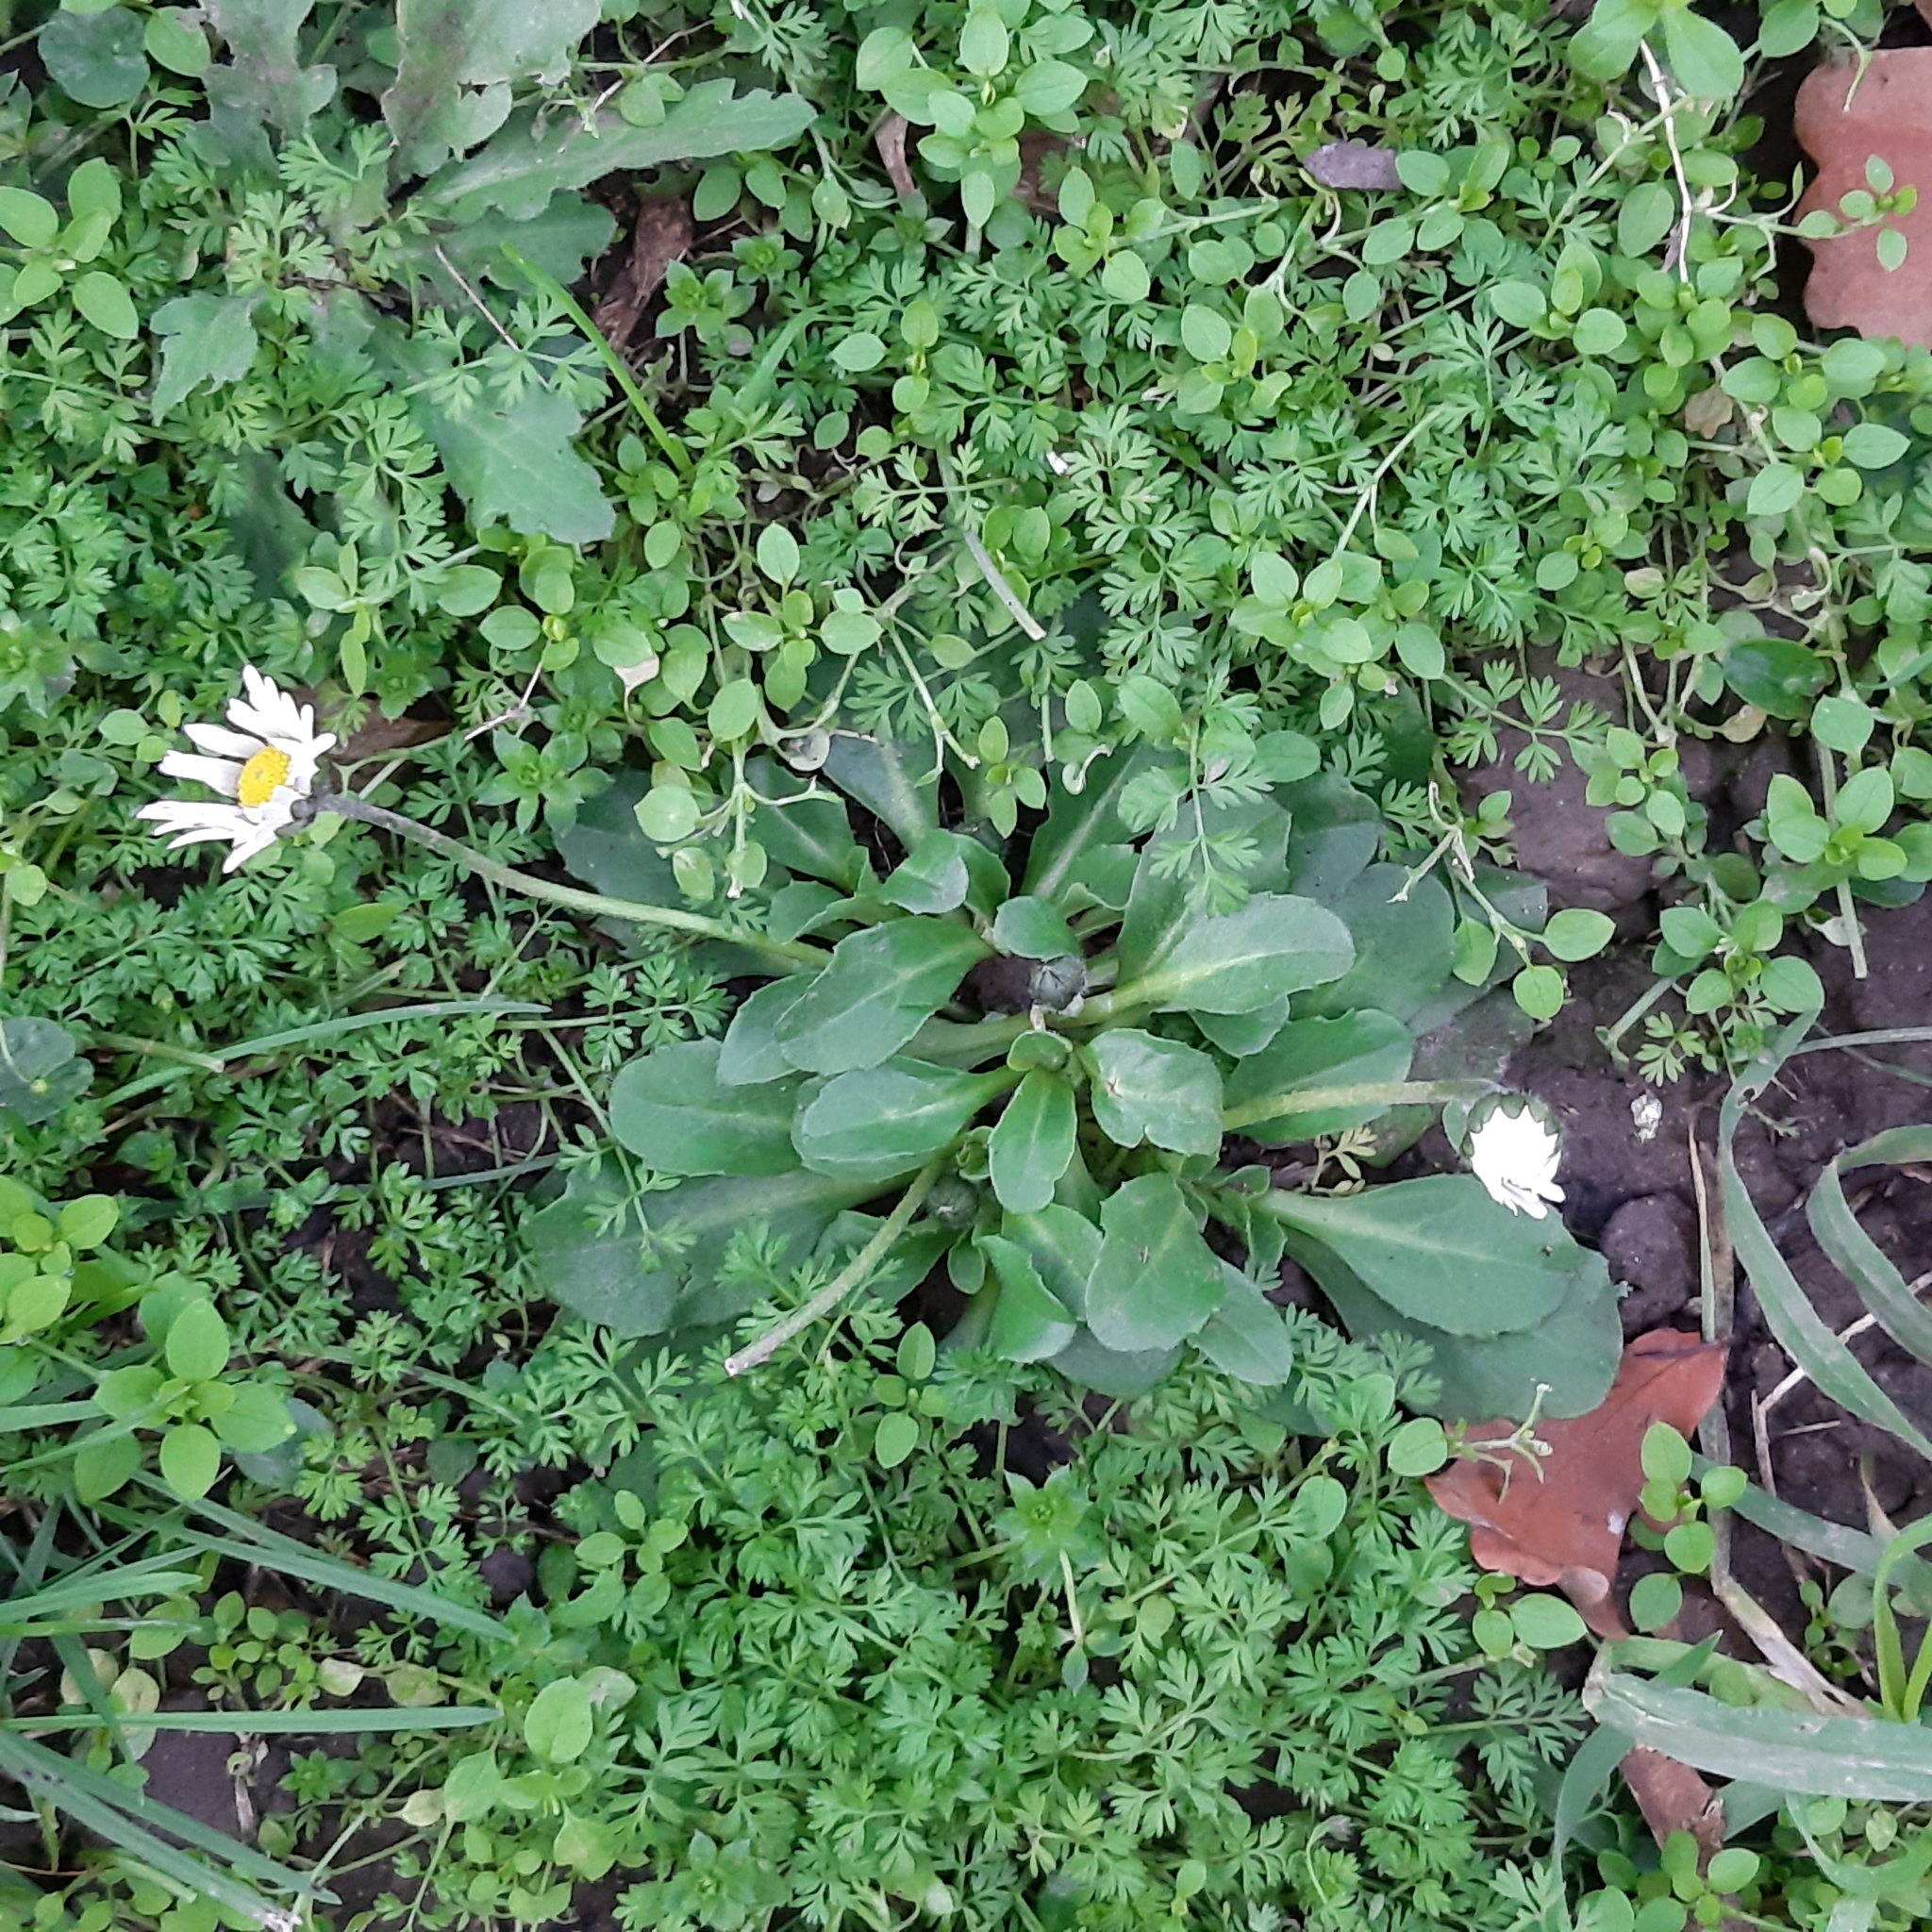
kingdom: Plantae
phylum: Tracheophyta
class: Magnoliopsida
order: Asterales
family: Asteraceae
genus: Bellis
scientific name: Bellis perennis
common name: Lawndaisy
